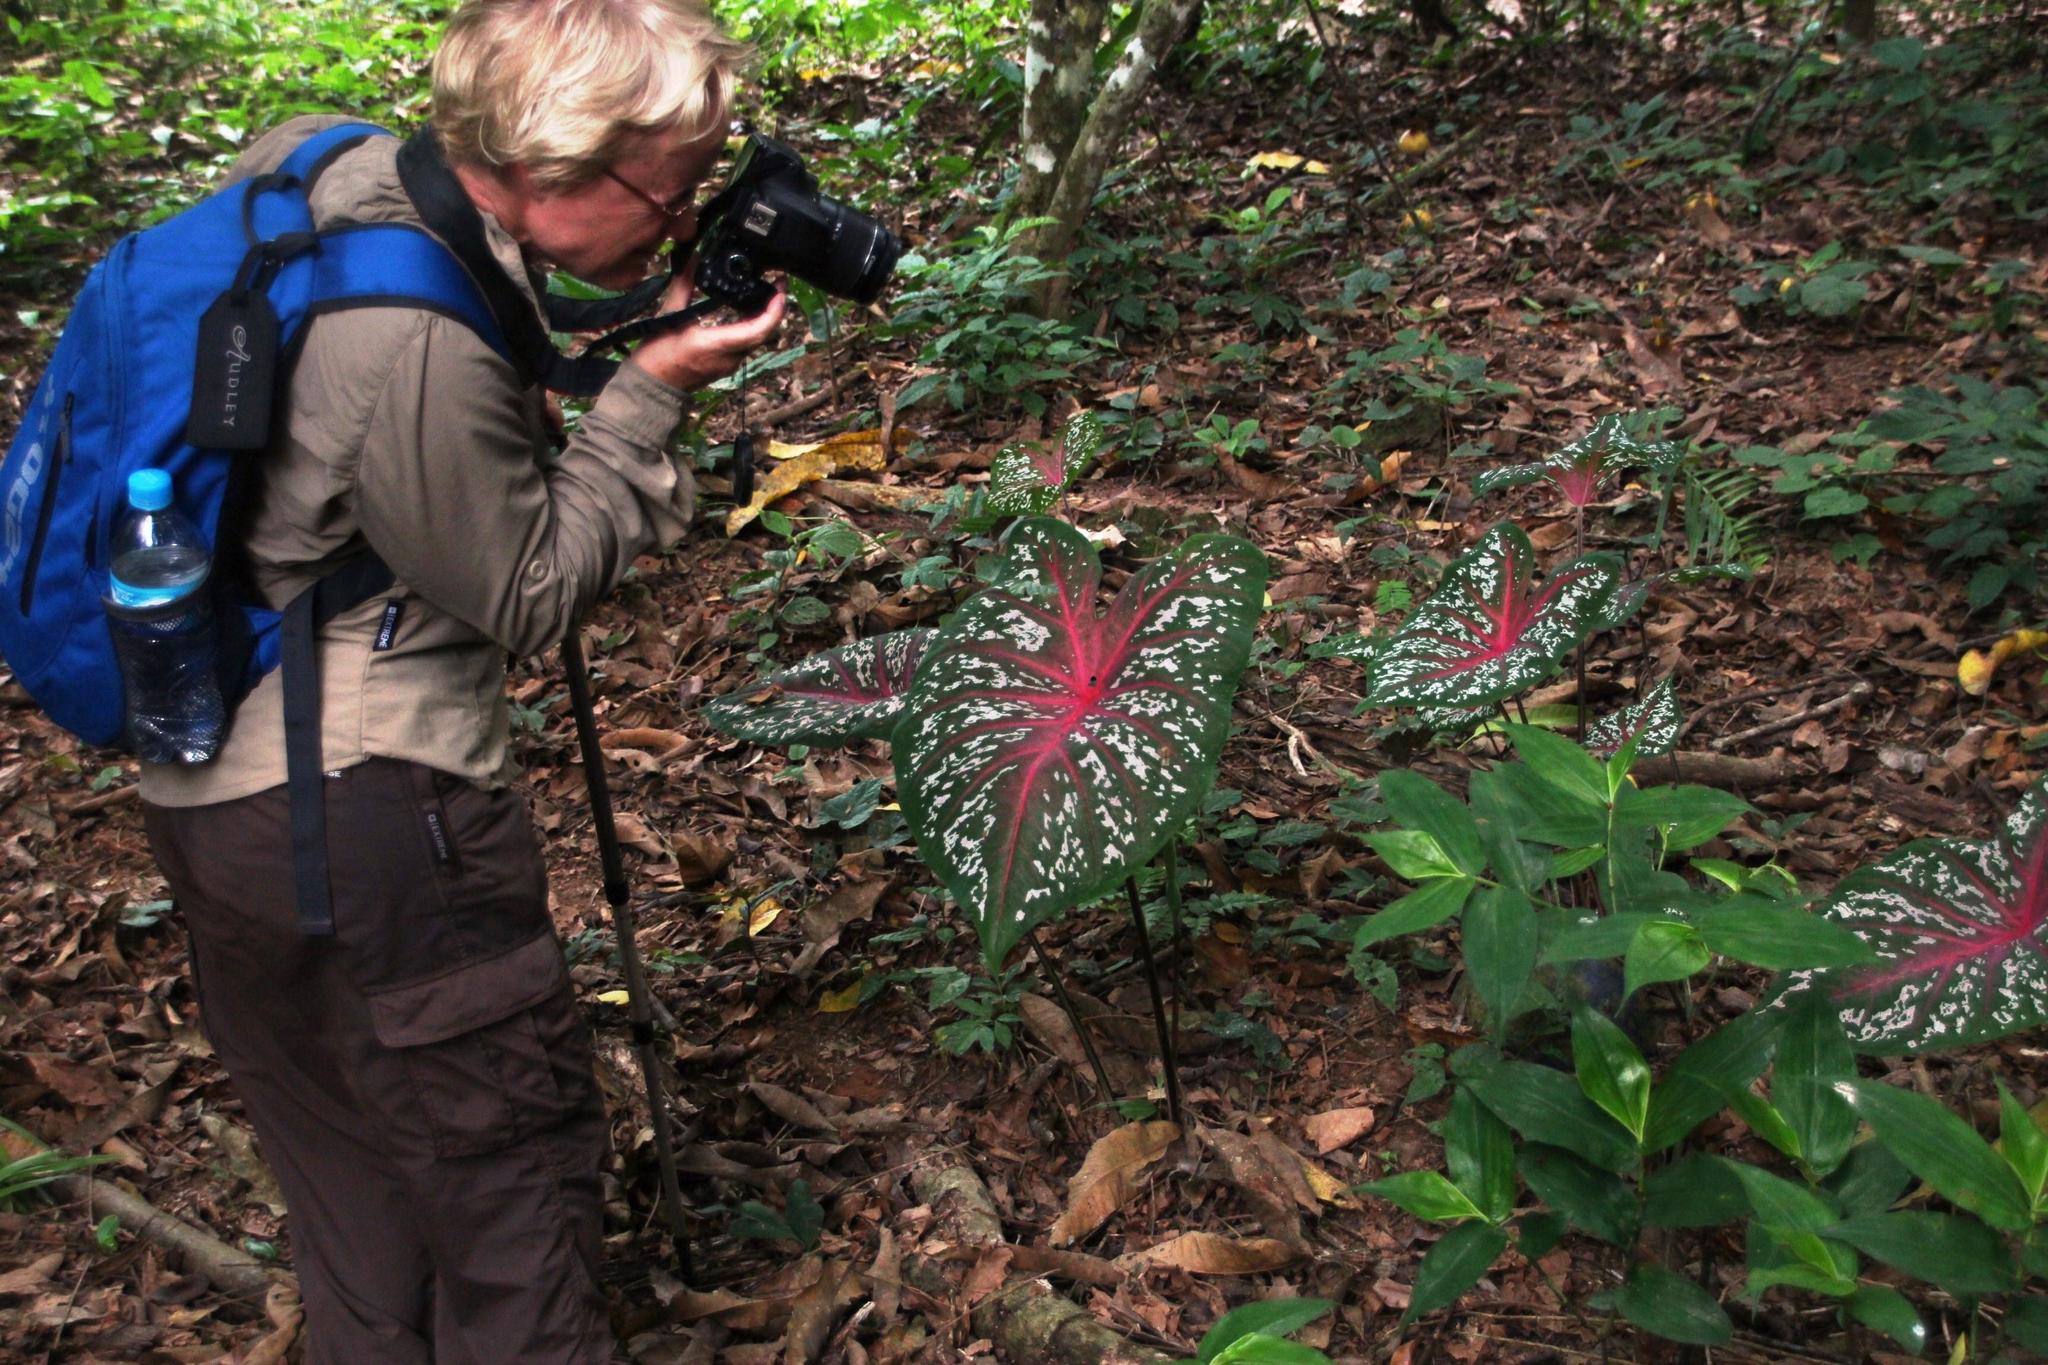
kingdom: Plantae
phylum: Tracheophyta
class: Liliopsida
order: Alismatales
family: Araceae
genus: Caladium
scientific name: Caladium bicolor
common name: Artist's pallet
